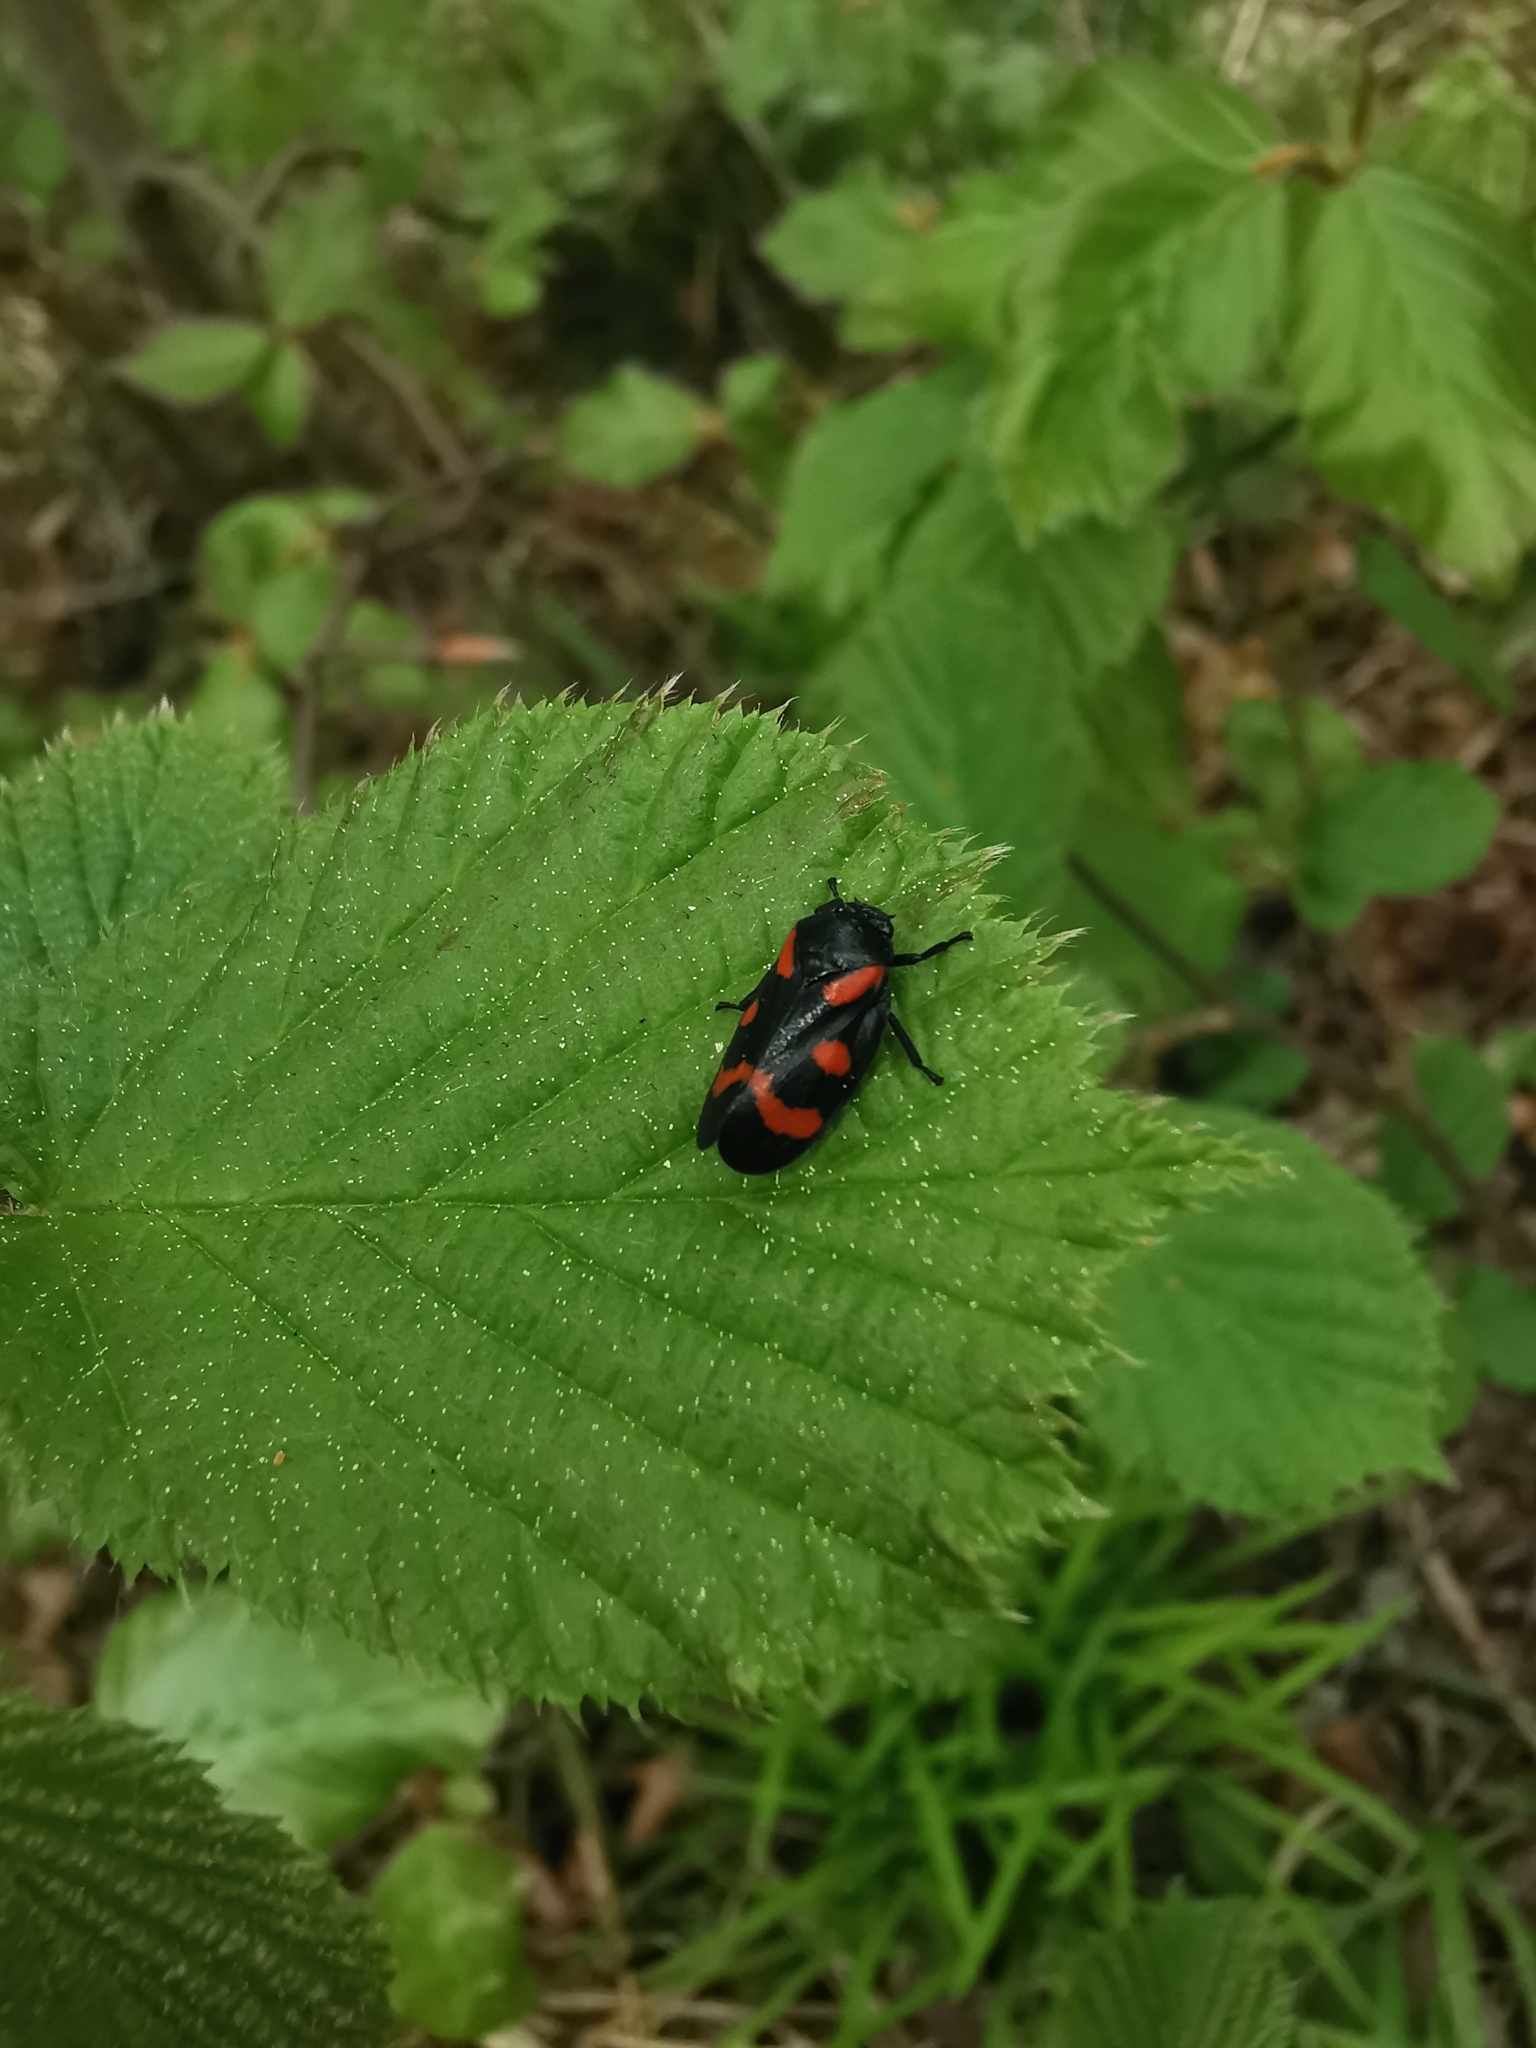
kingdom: Animalia
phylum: Arthropoda
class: Insecta
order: Hemiptera
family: Cercopidae
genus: Cercopis
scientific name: Cercopis sanguinolenta
